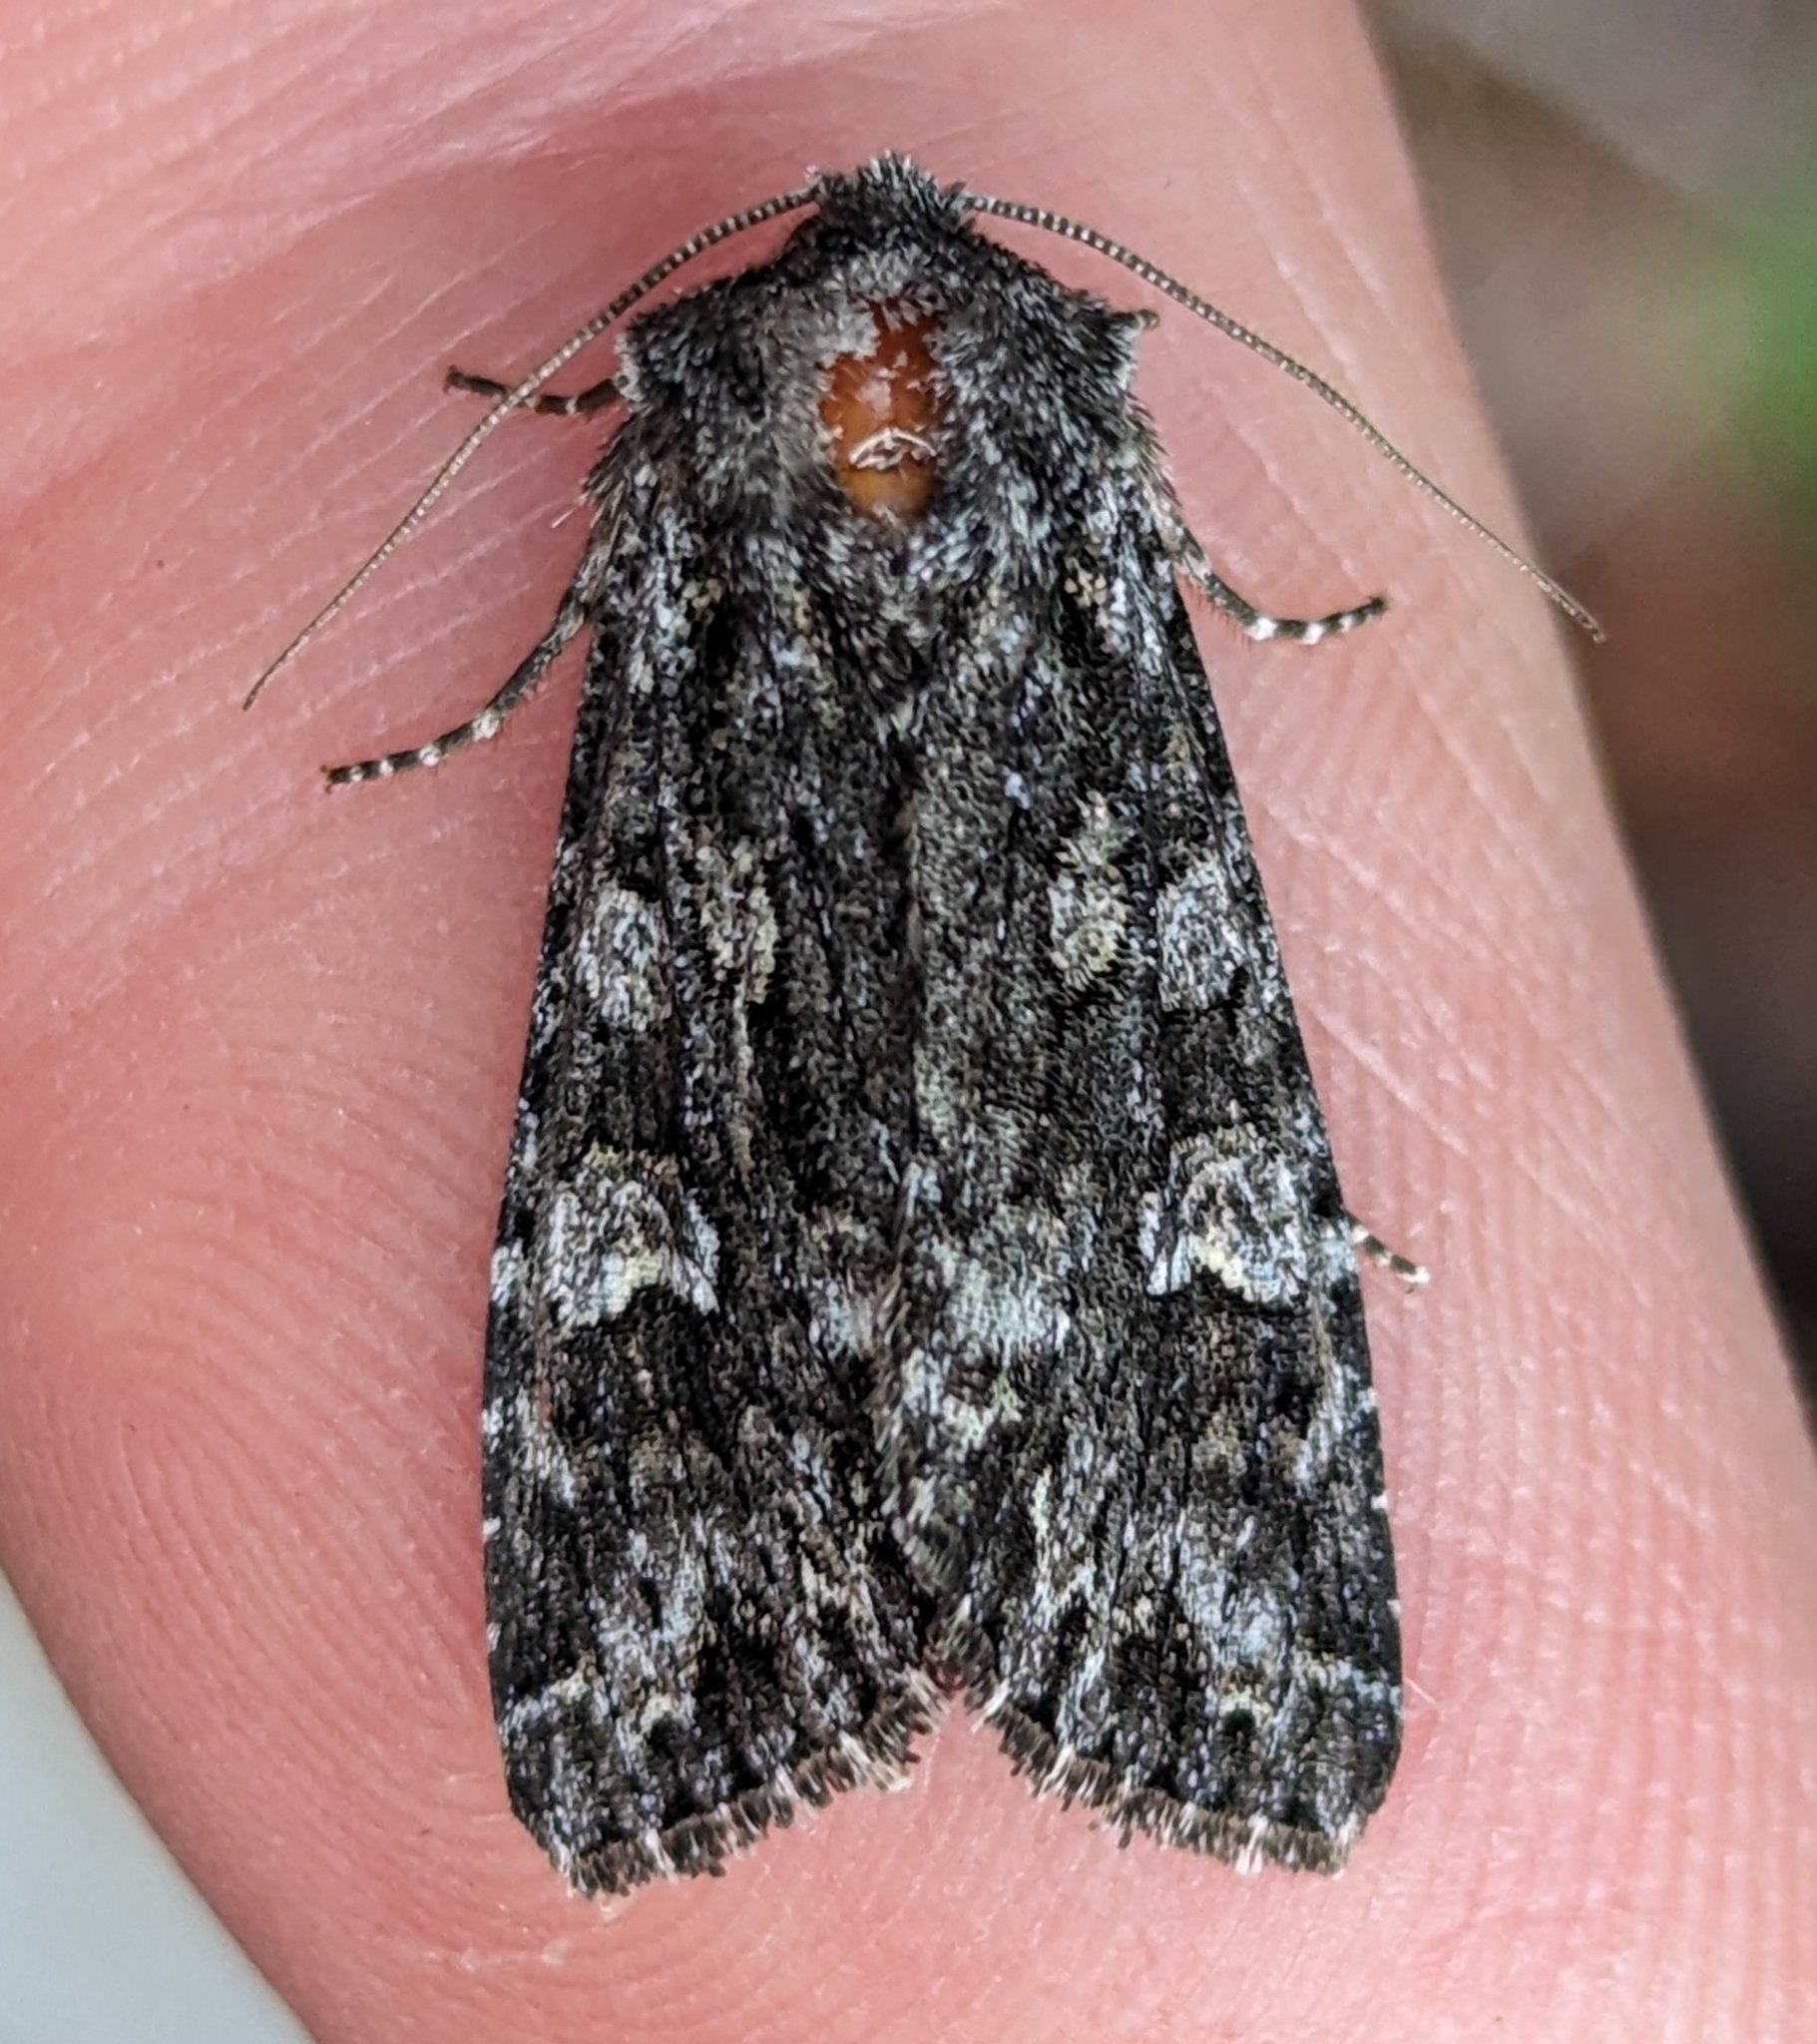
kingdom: Animalia
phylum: Arthropoda
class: Insecta
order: Lepidoptera
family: Noctuidae
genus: Papestra
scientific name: Papestra cristifera
